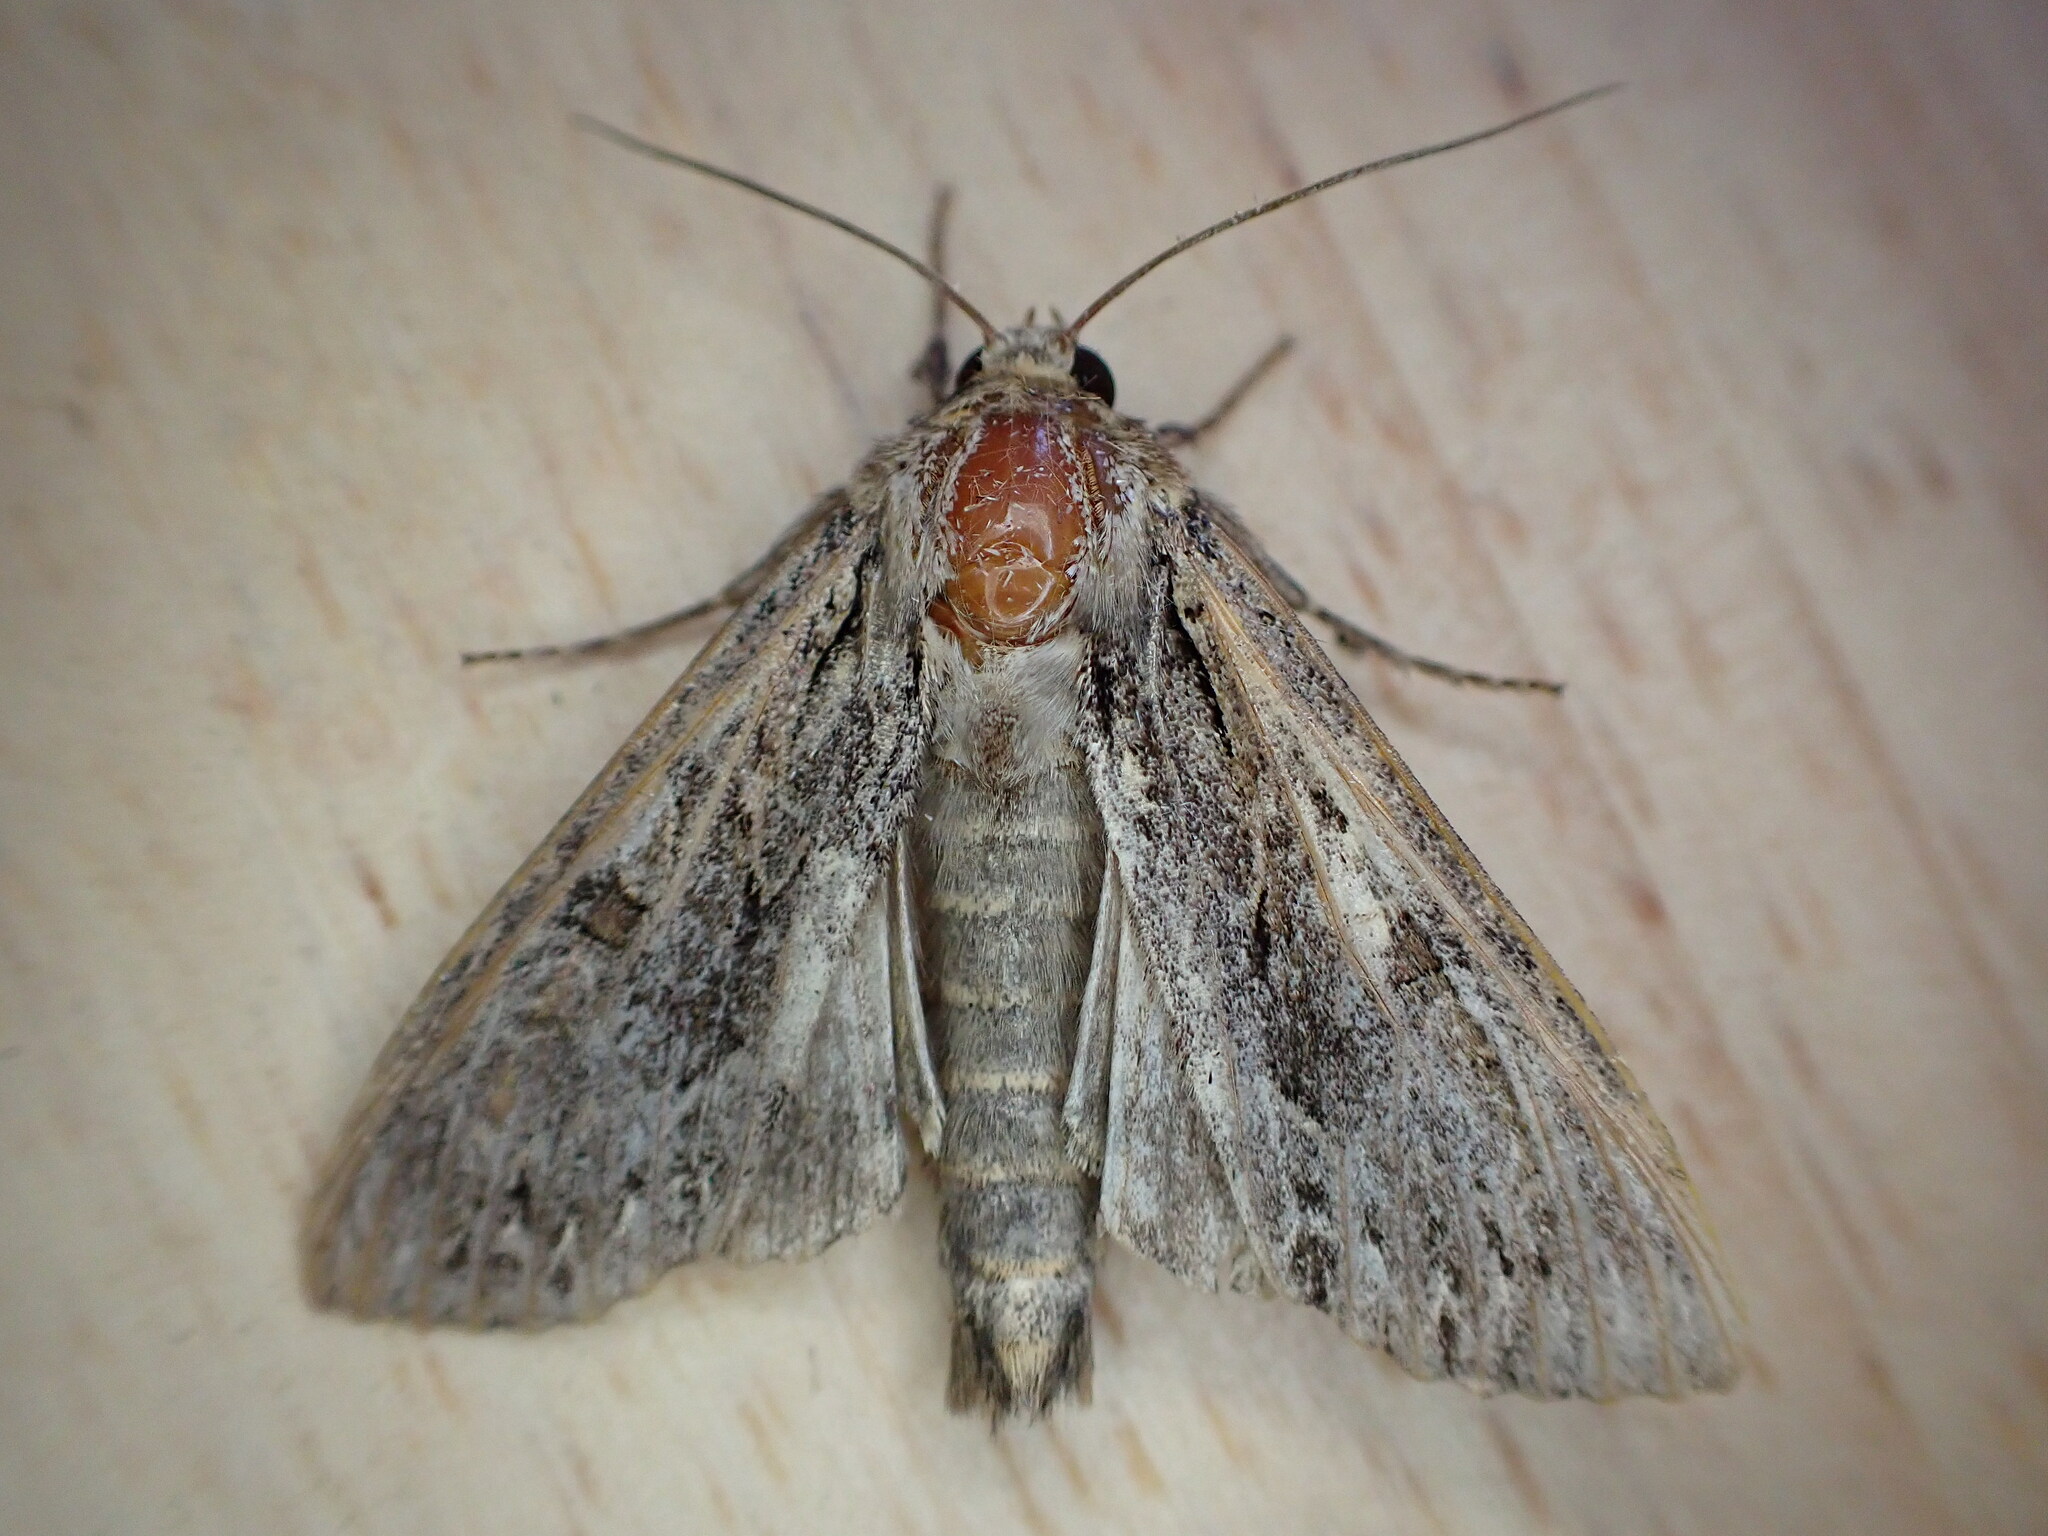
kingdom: Animalia
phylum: Arthropoda
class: Insecta
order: Lepidoptera
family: Noctuidae
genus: Apamea
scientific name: Apamea monoglypha
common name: Dark arches
